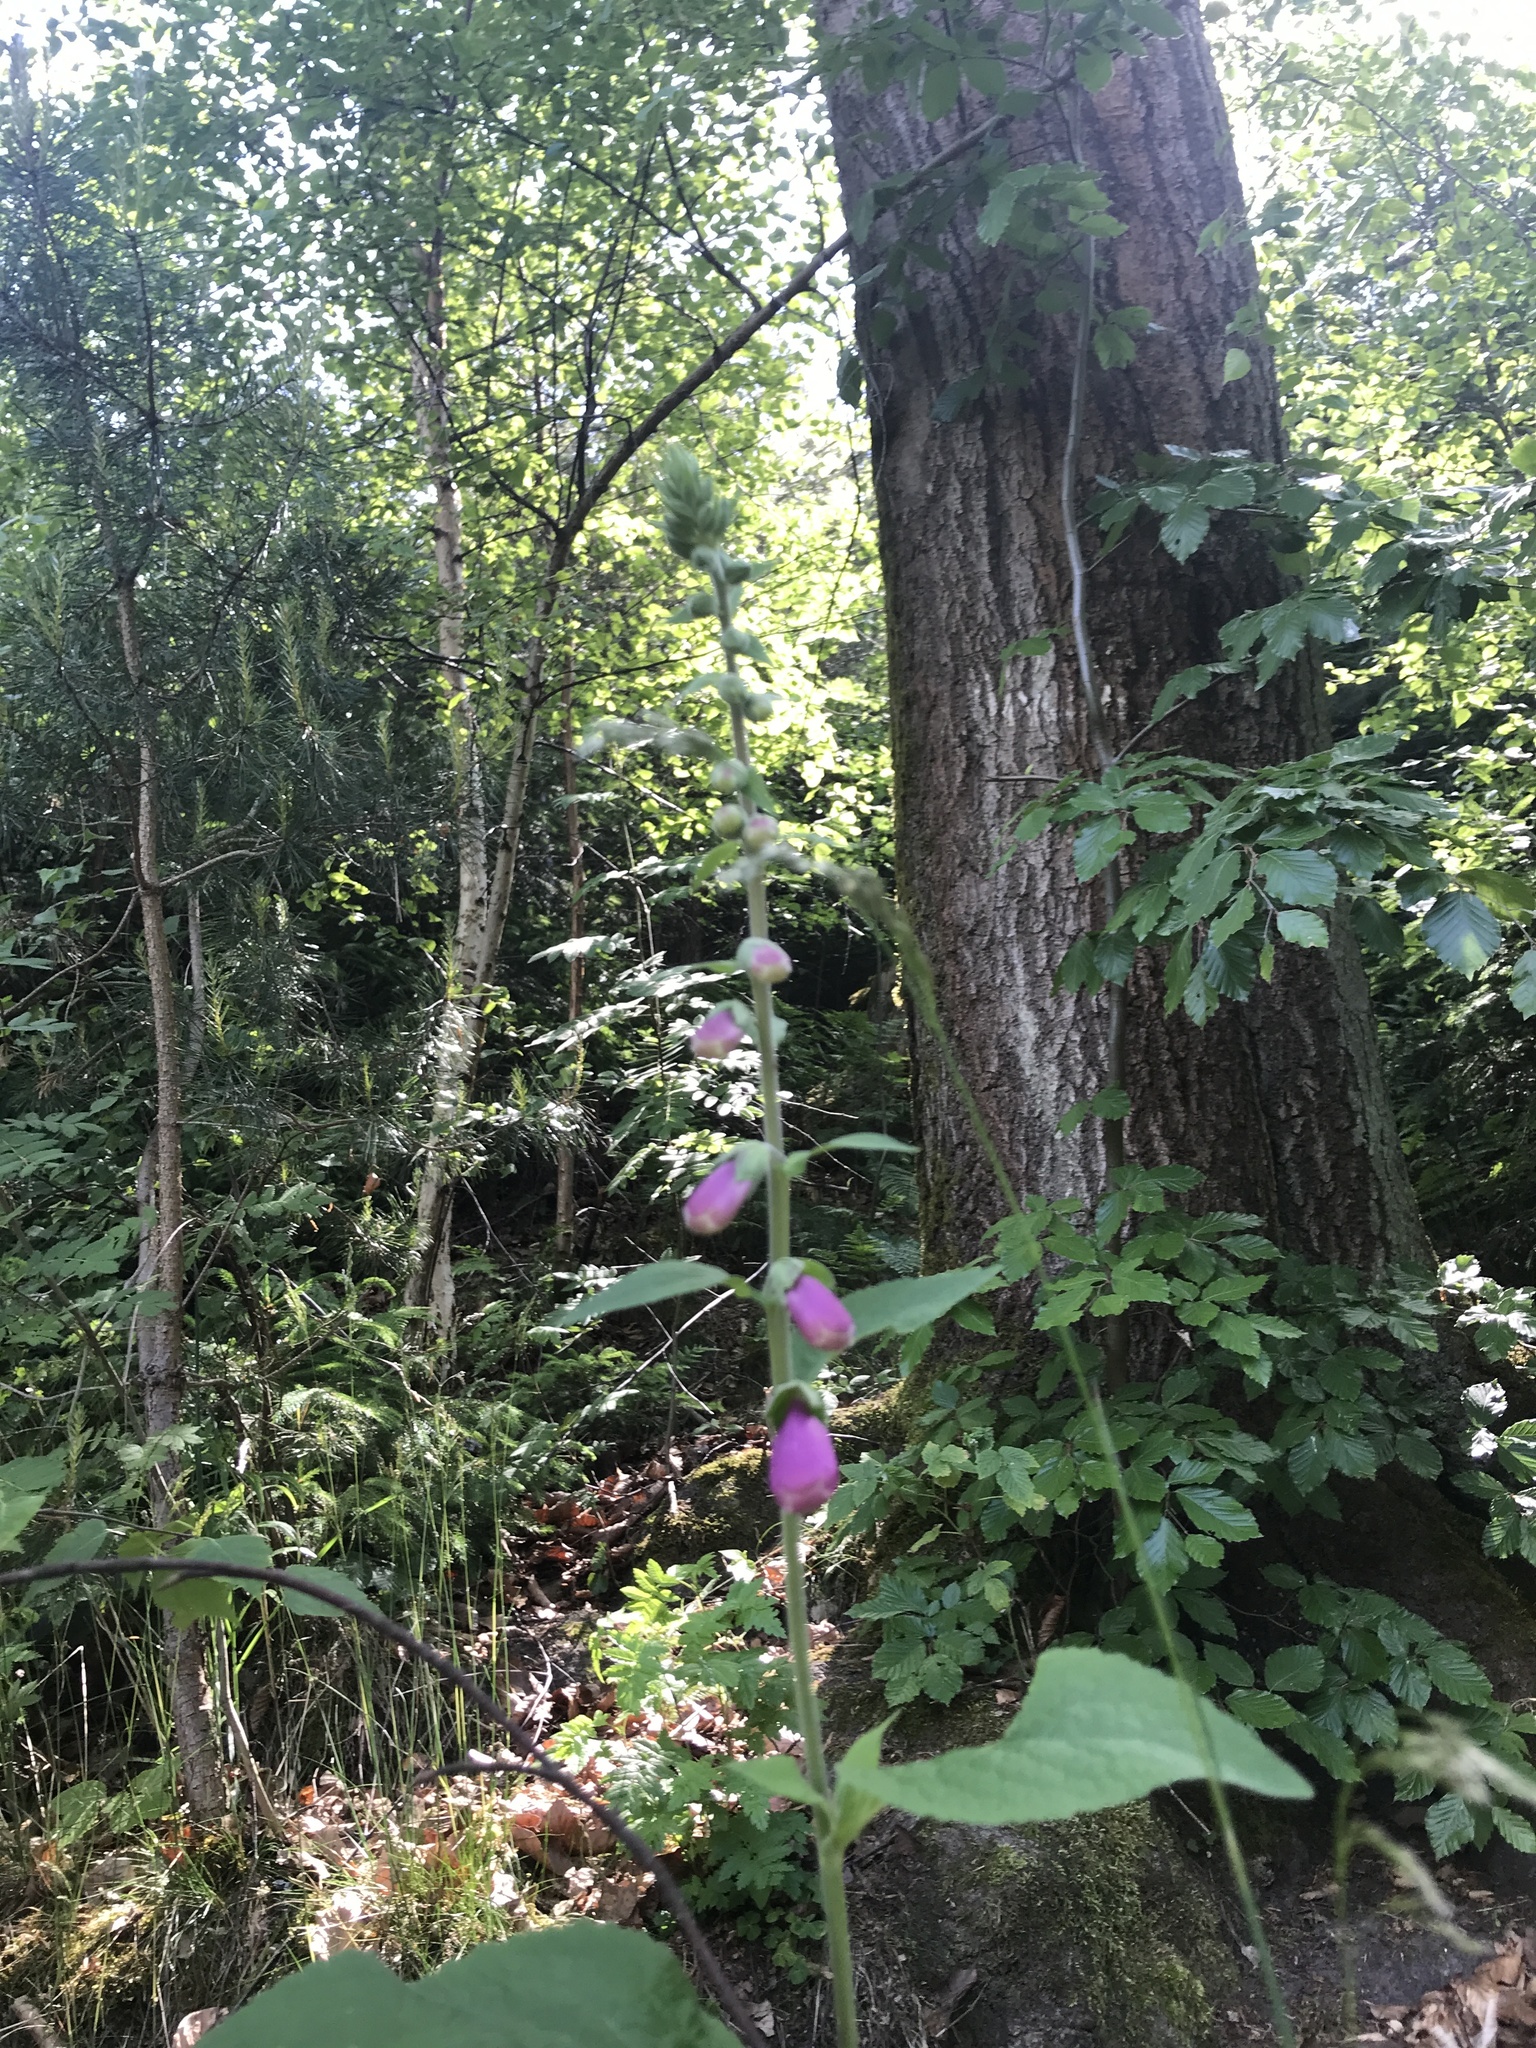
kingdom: Plantae
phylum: Tracheophyta
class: Magnoliopsida
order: Lamiales
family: Plantaginaceae
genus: Digitalis
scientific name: Digitalis purpurea
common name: Foxglove
